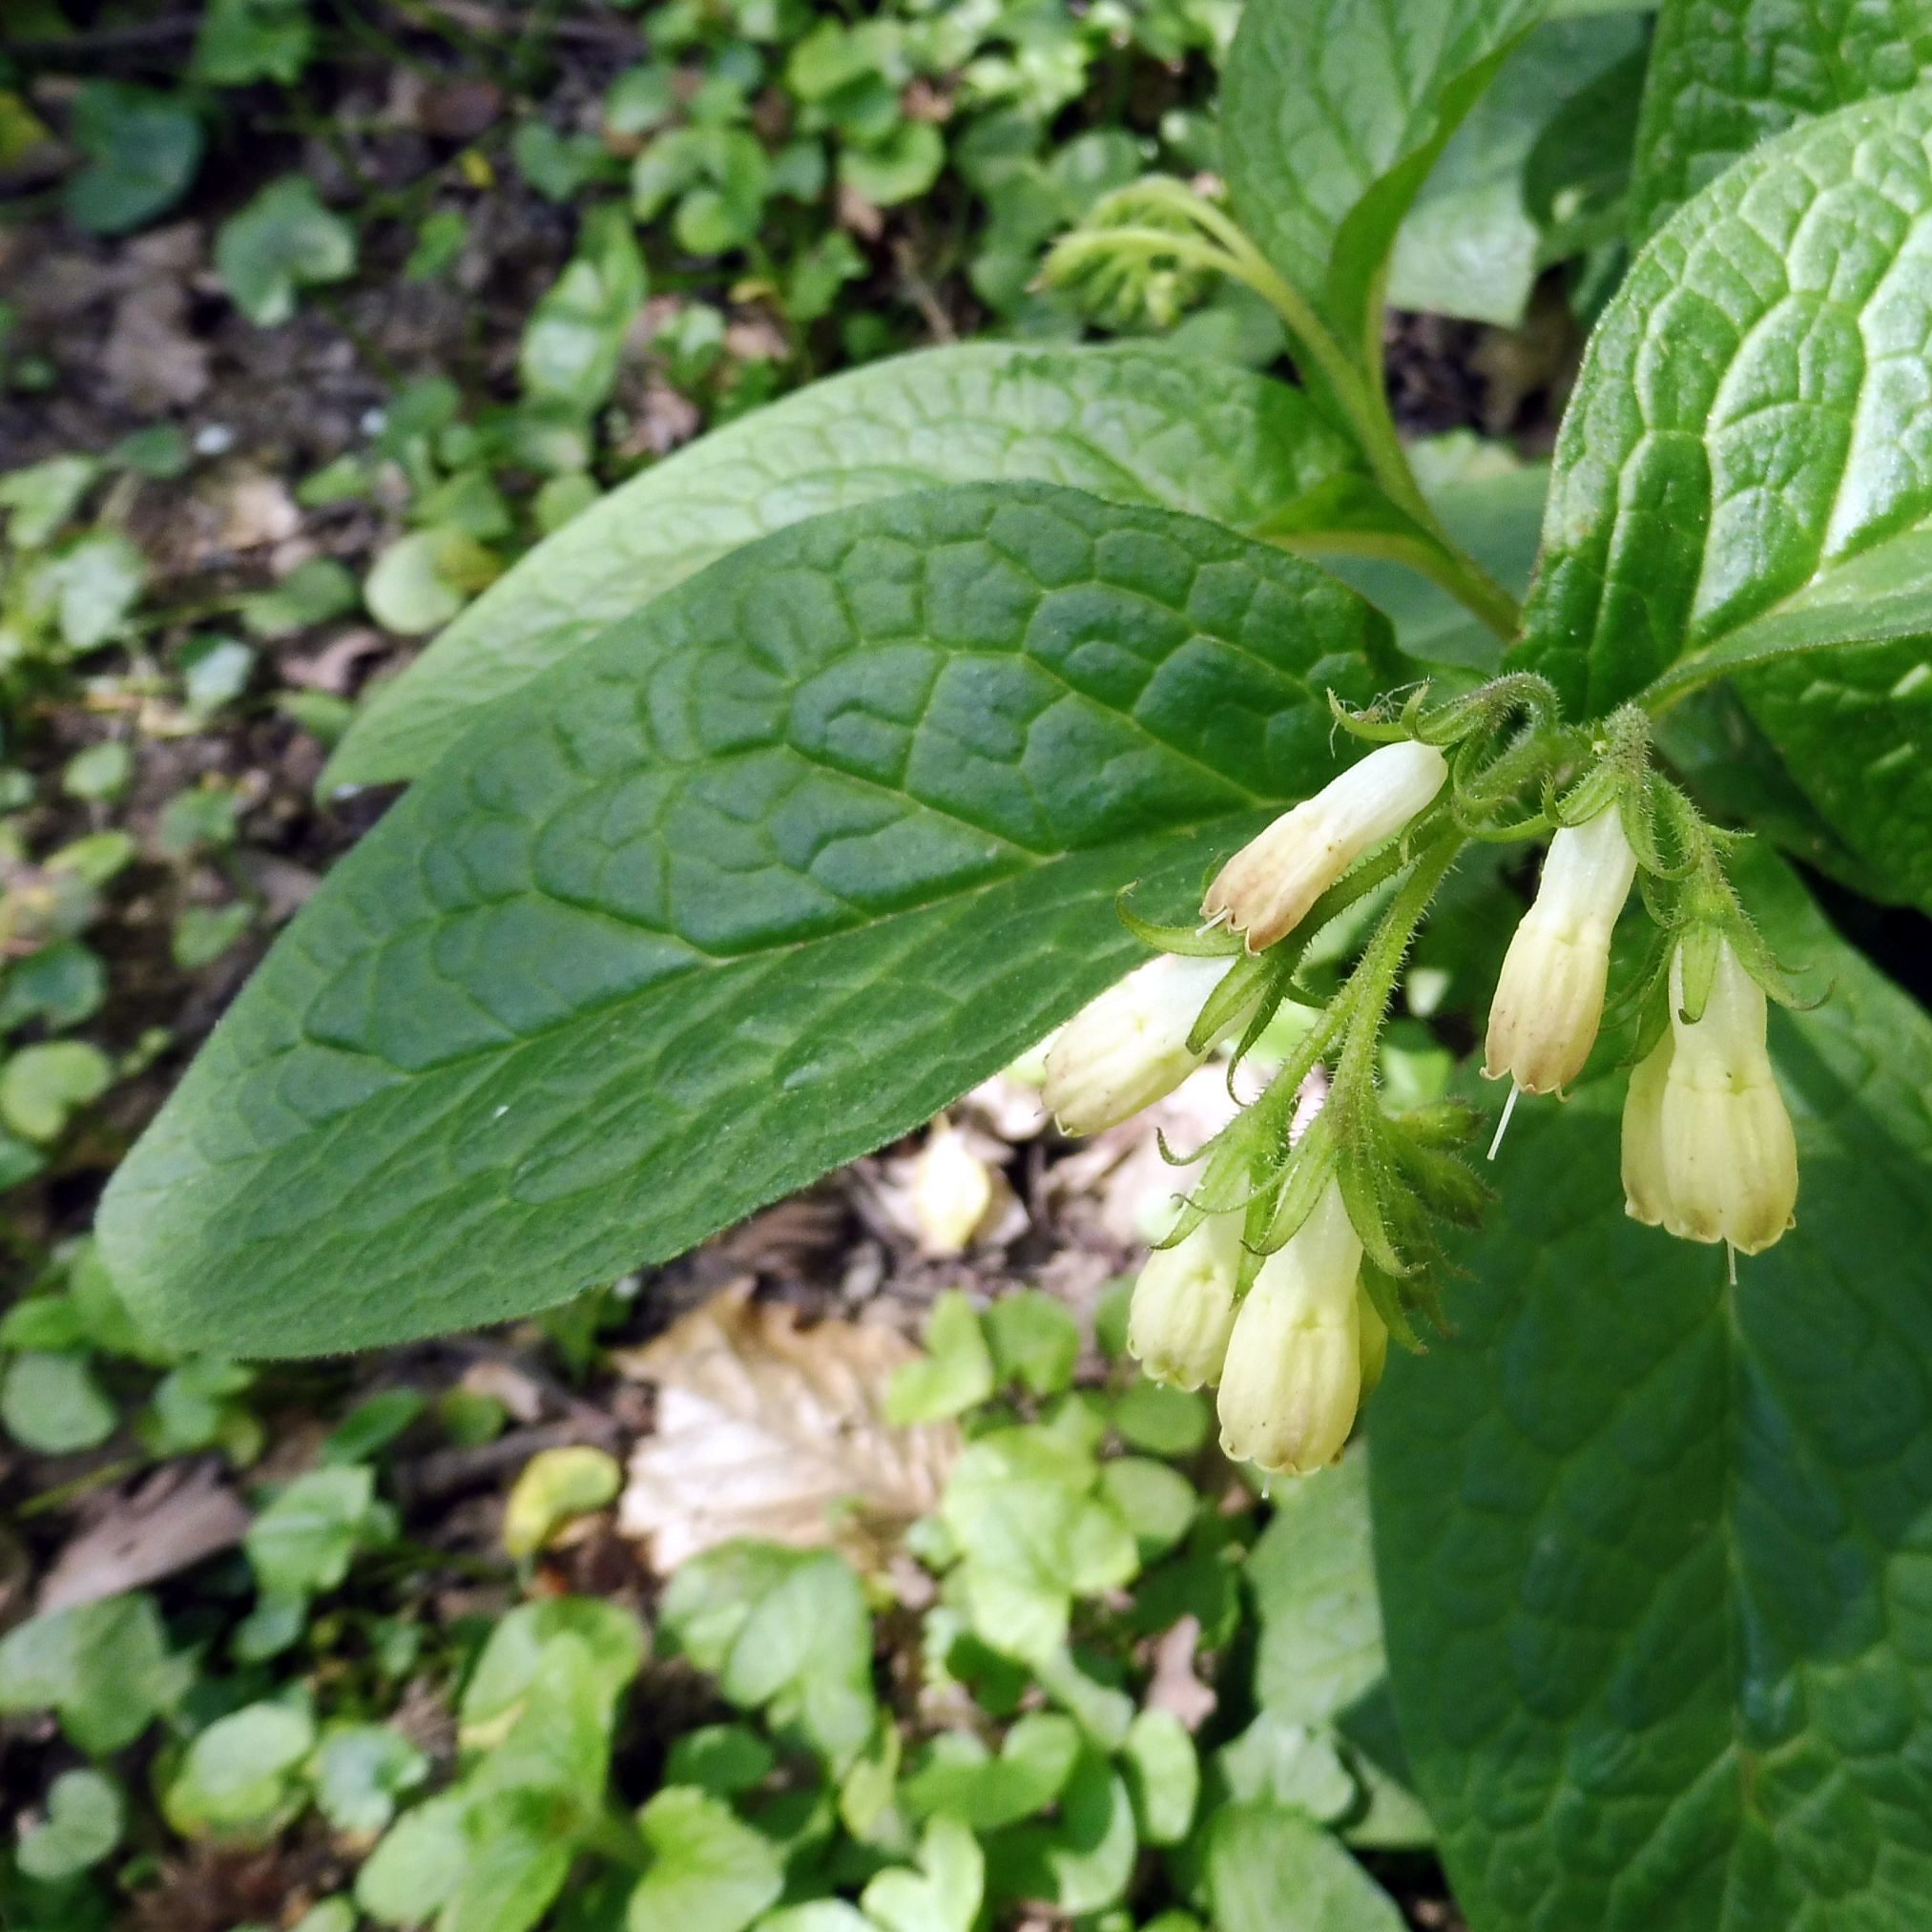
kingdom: Plantae
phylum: Tracheophyta
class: Magnoliopsida
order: Boraginales
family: Boraginaceae
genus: Symphytum
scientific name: Symphytum tuberosum
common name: Tuberous comfrey
